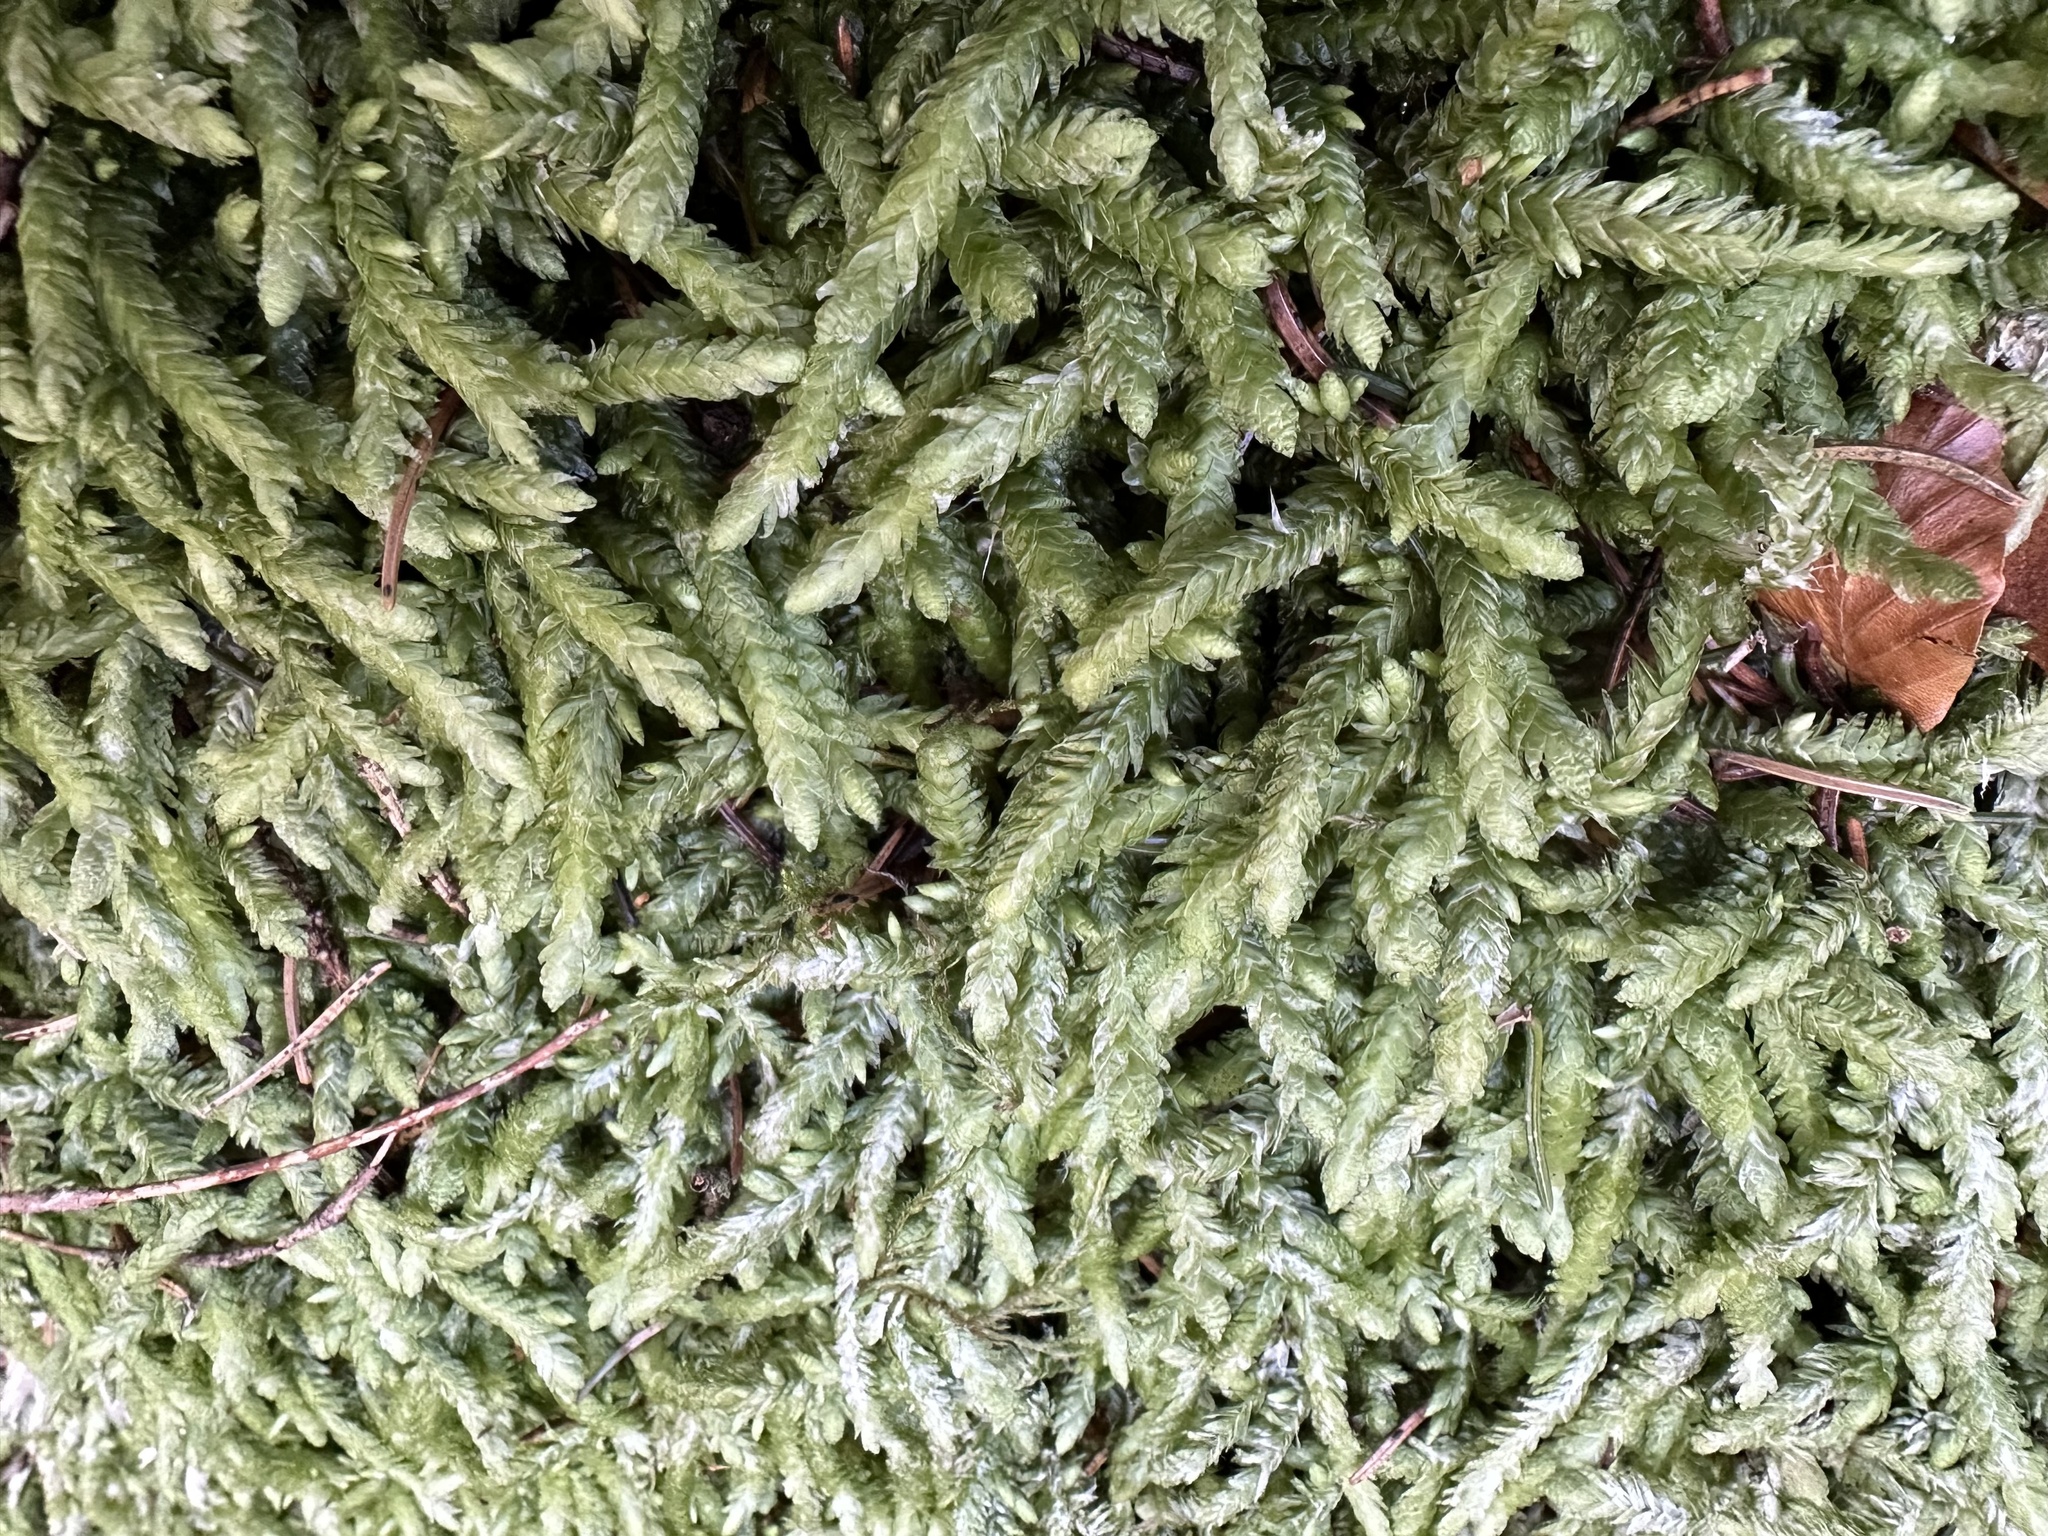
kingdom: Plantae
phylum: Bryophyta
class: Bryopsida
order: Hypnales
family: Plagiotheciaceae
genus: Plagiothecium
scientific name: Plagiothecium undulatum
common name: Waved silk-moss
